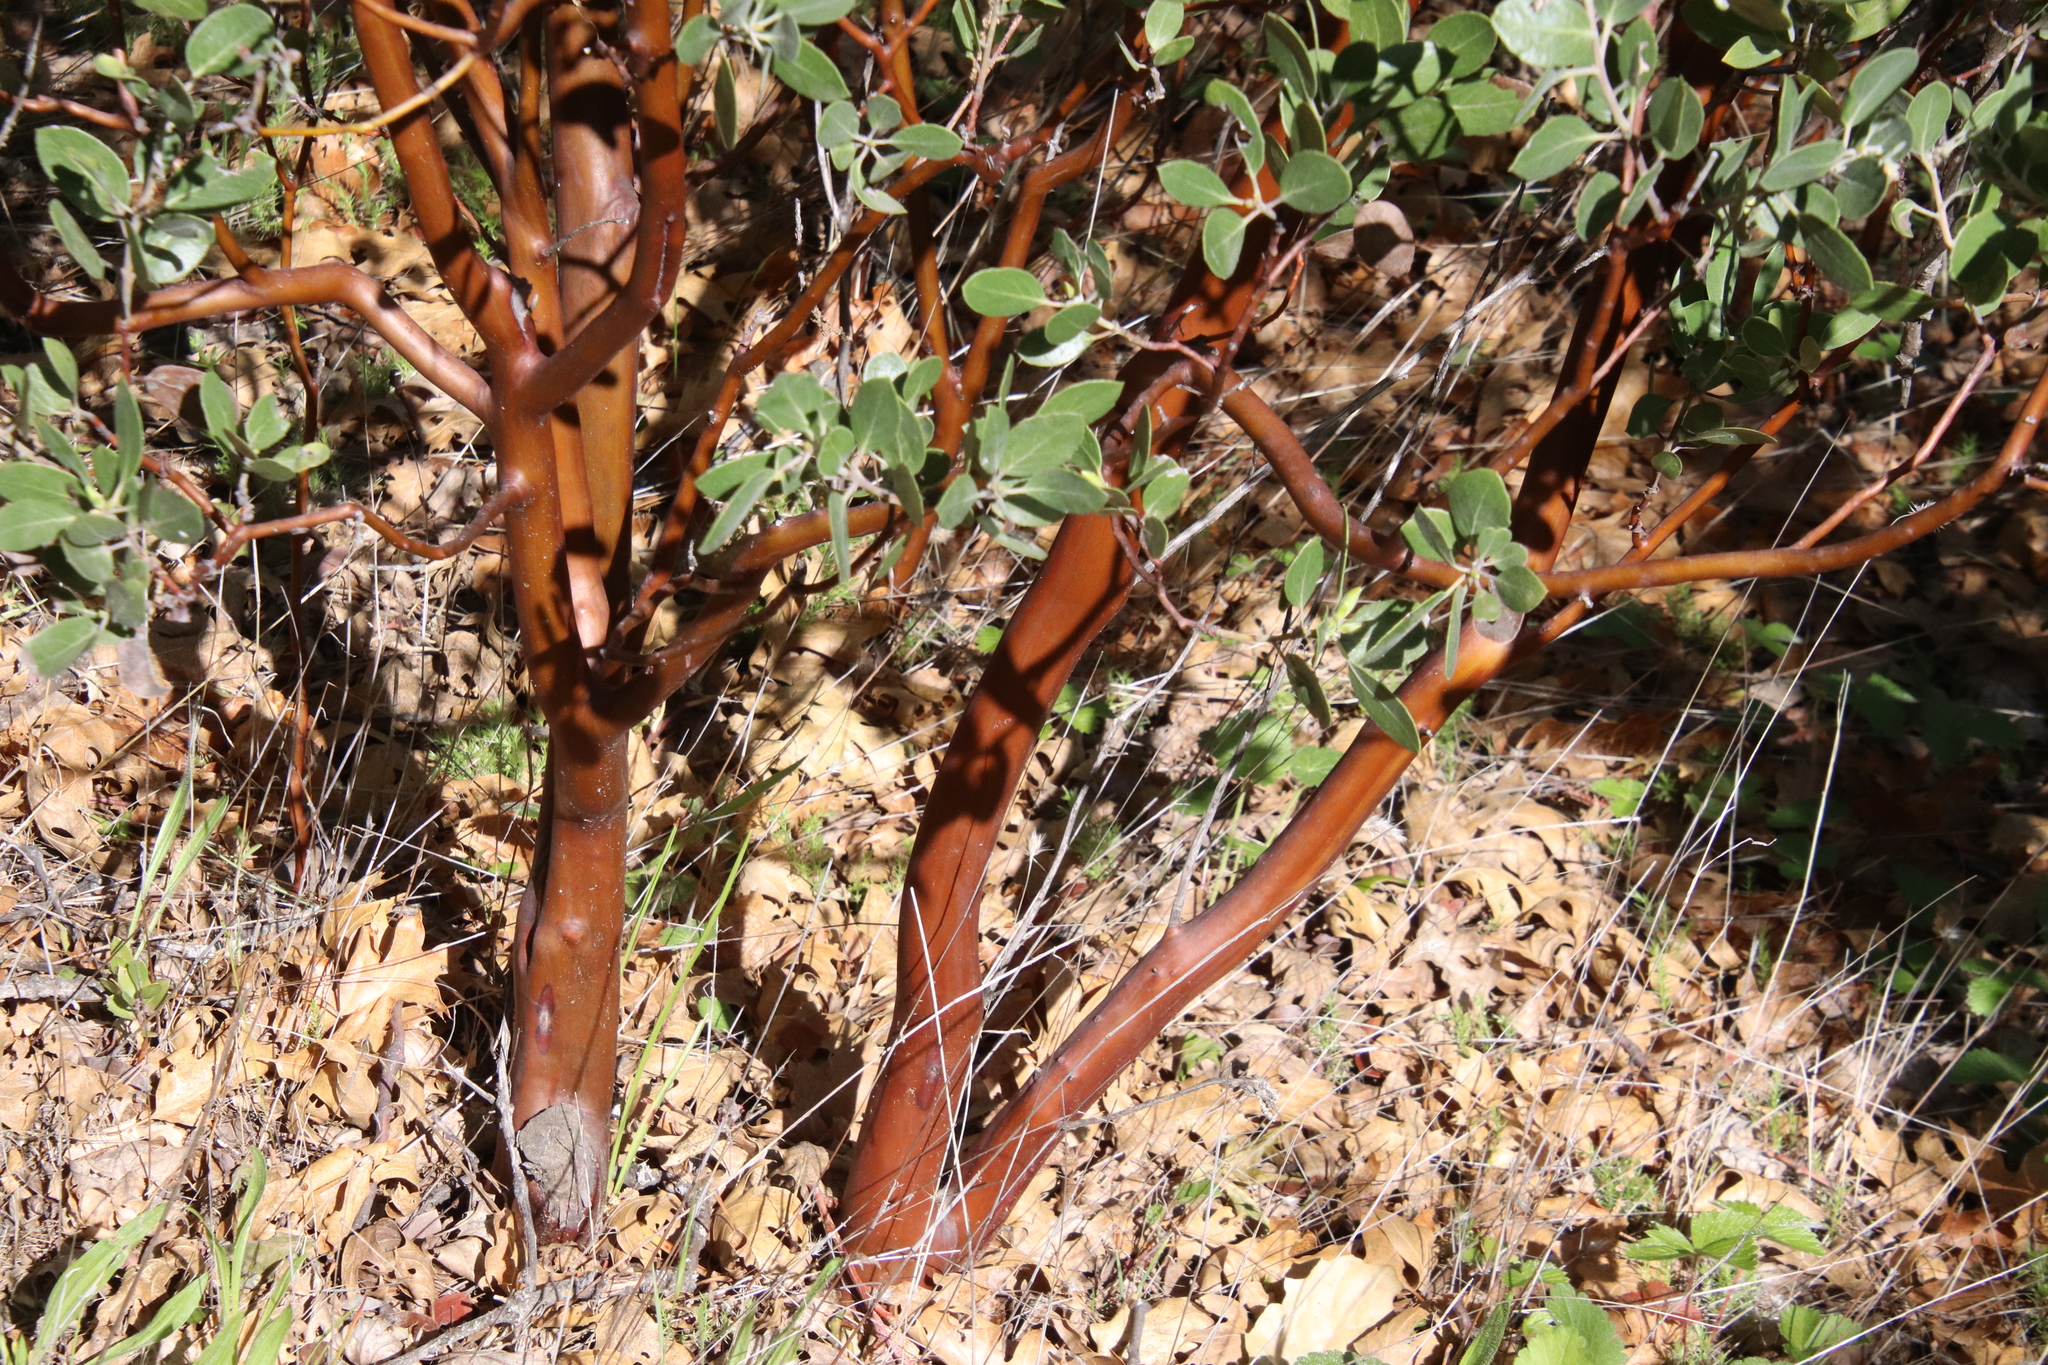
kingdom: Plantae
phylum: Tracheophyta
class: Magnoliopsida
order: Ericales
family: Ericaceae
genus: Arctostaphylos
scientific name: Arctostaphylos pungens
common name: Mexican manzanita
